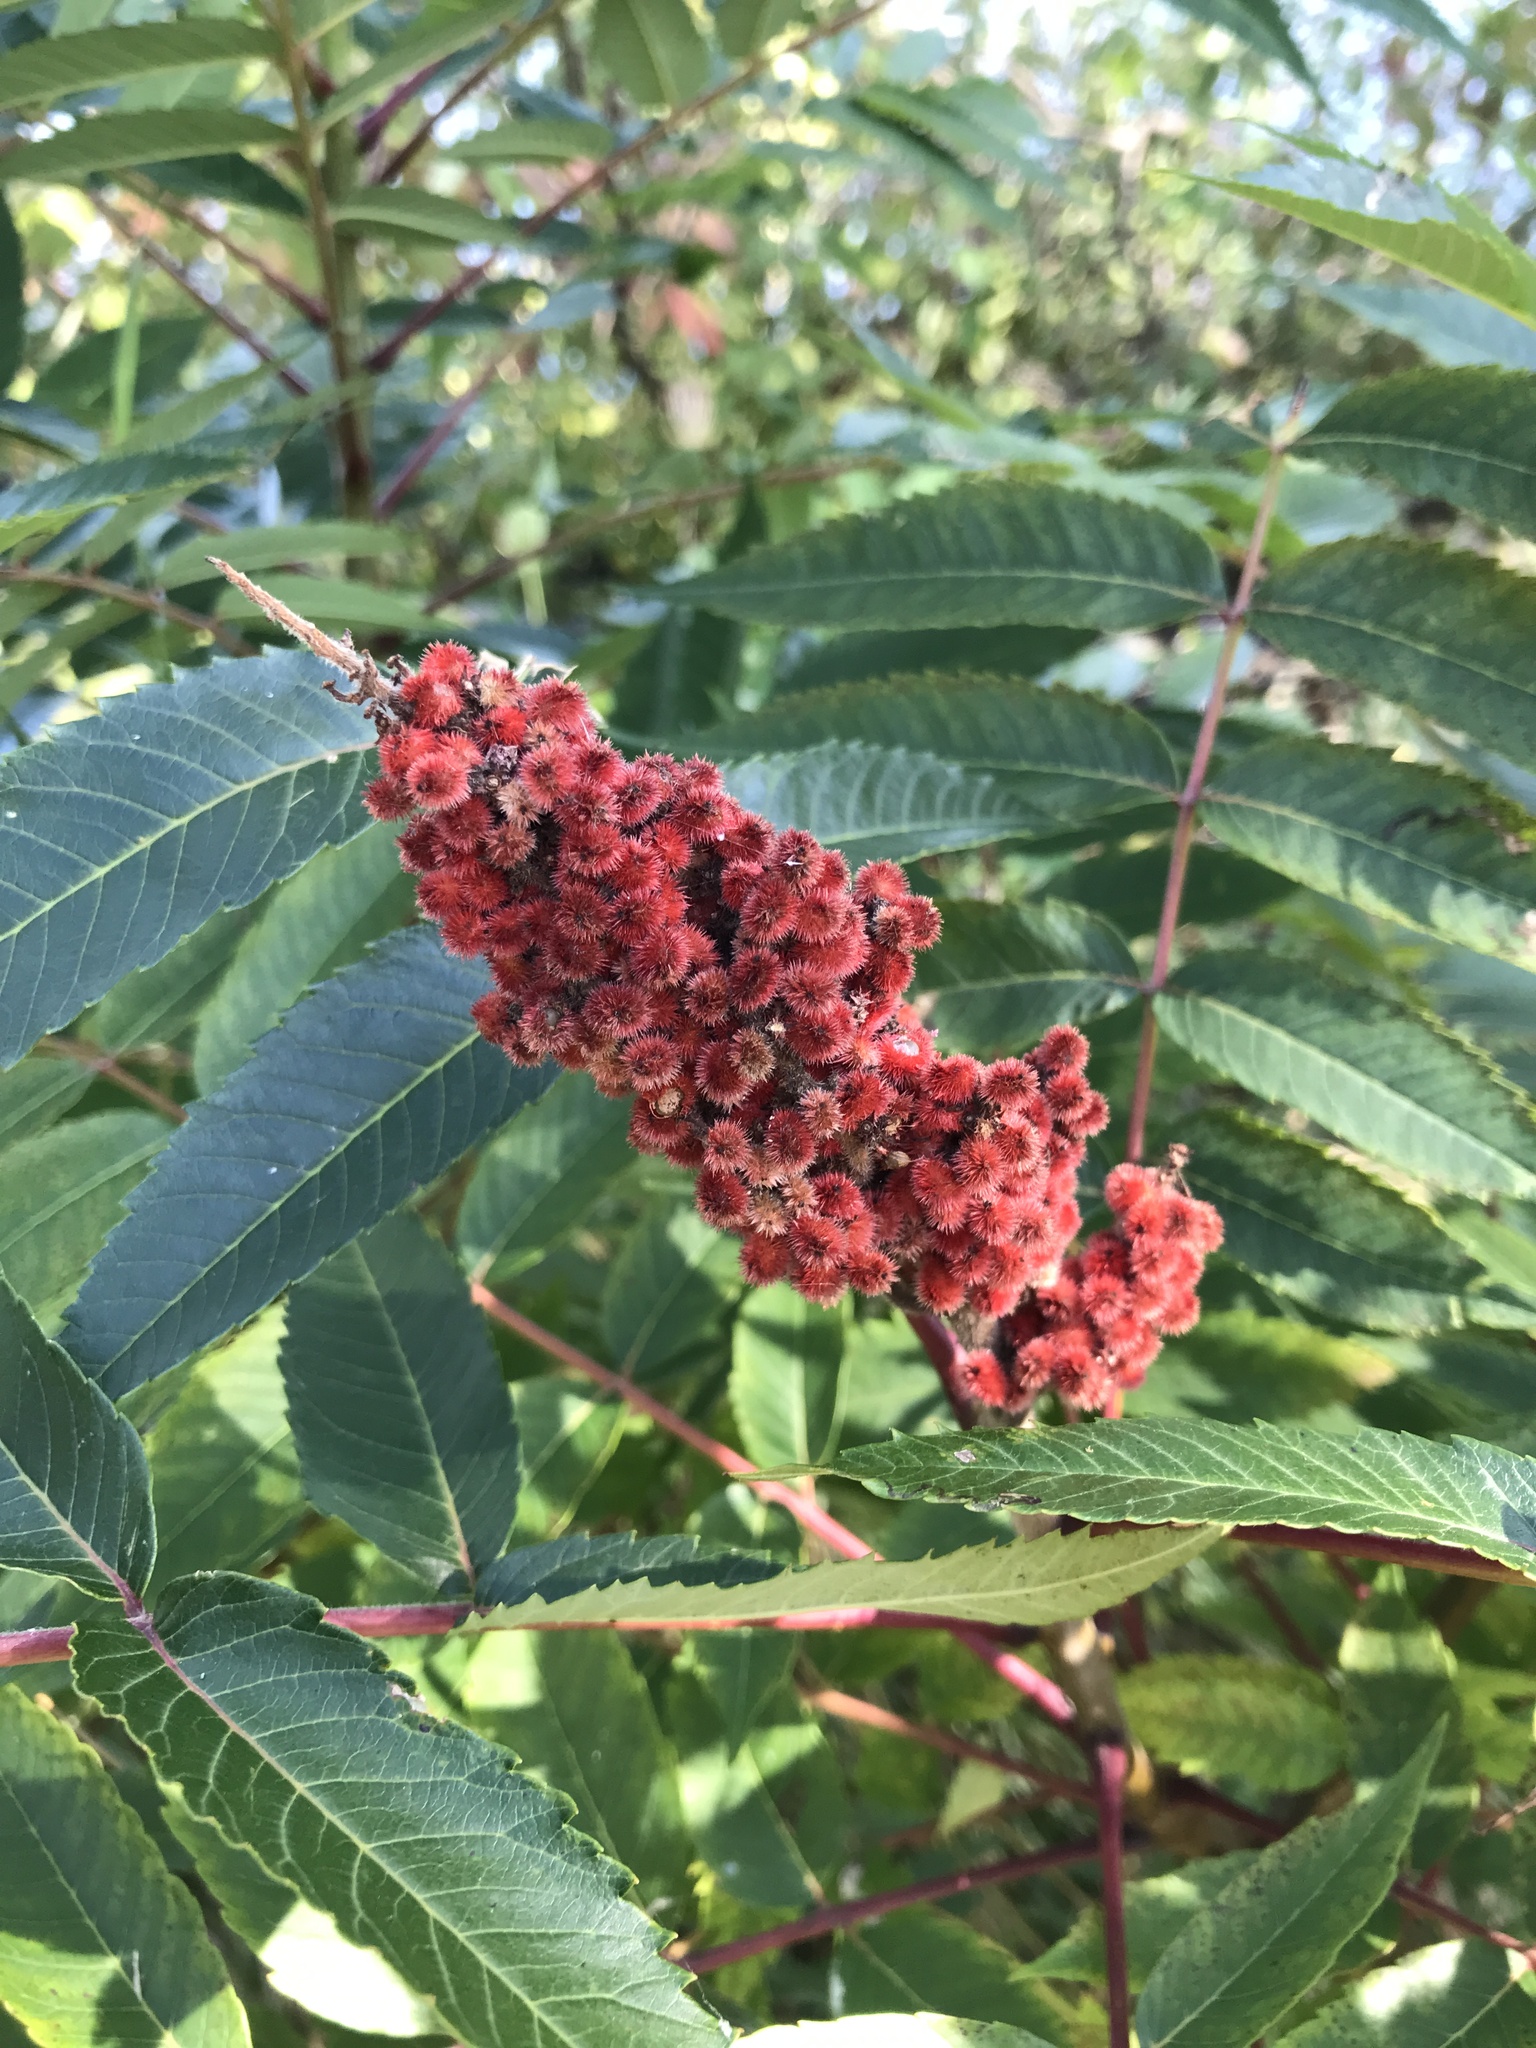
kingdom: Plantae
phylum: Tracheophyta
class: Magnoliopsida
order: Sapindales
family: Anacardiaceae
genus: Rhus
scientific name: Rhus typhina
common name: Staghorn sumac
